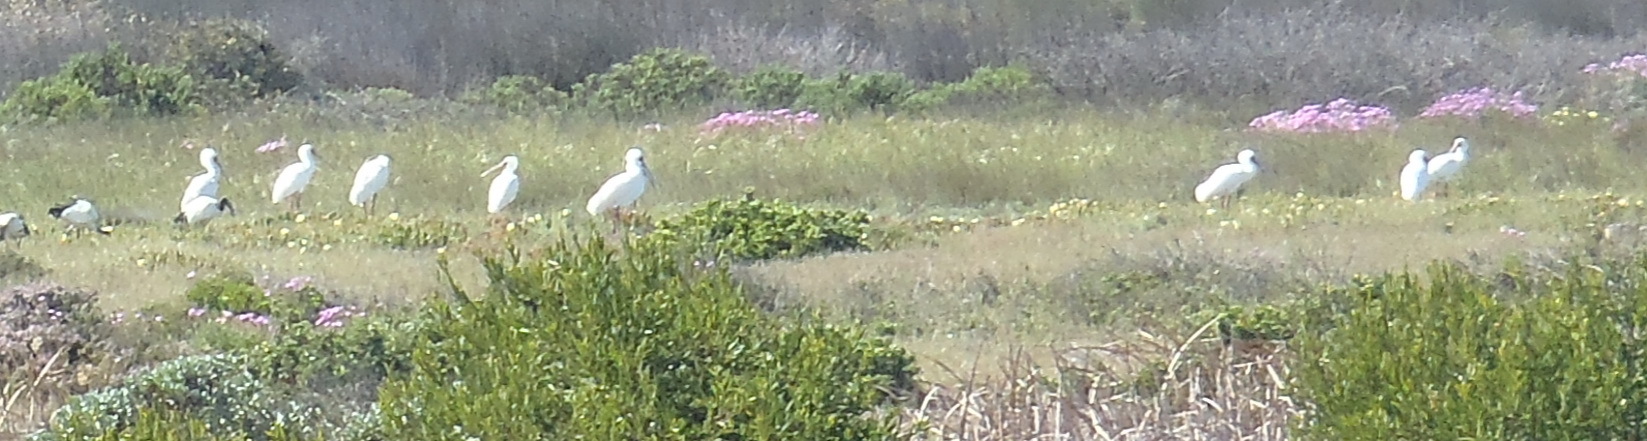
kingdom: Animalia
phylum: Chordata
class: Aves
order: Pelecaniformes
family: Threskiornithidae
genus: Platalea
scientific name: Platalea alba
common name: African spoonbill
